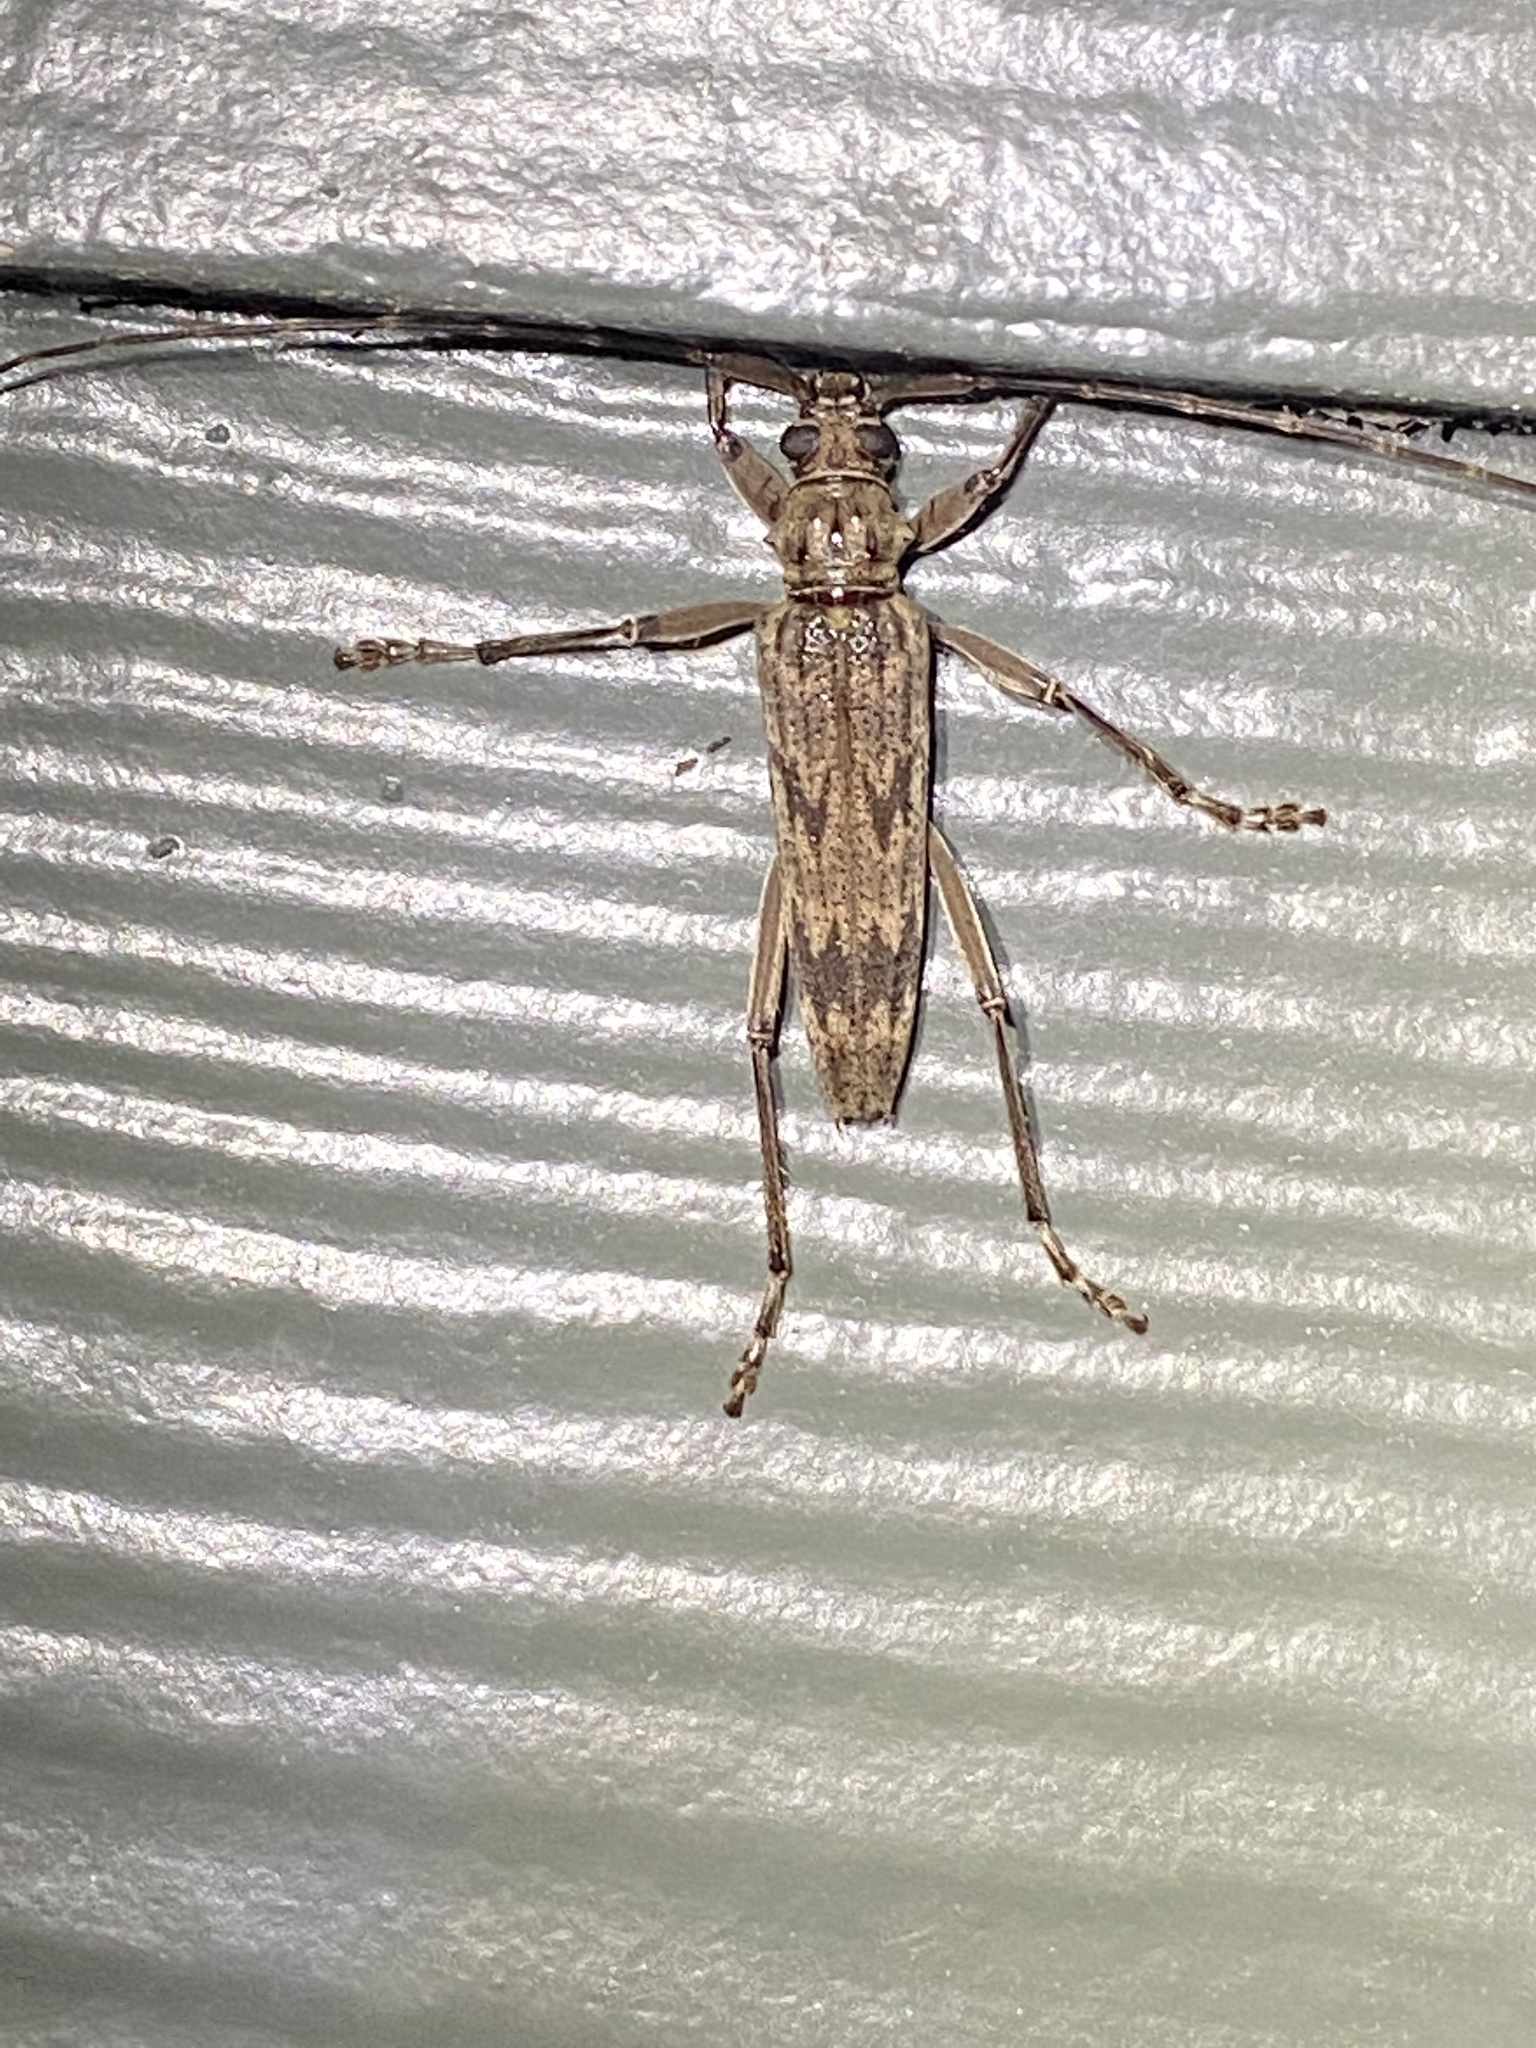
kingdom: Animalia
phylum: Arthropoda
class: Insecta
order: Coleoptera
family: Cerambycidae
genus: Elytrimitatrix
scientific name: Elytrimitatrix undata
